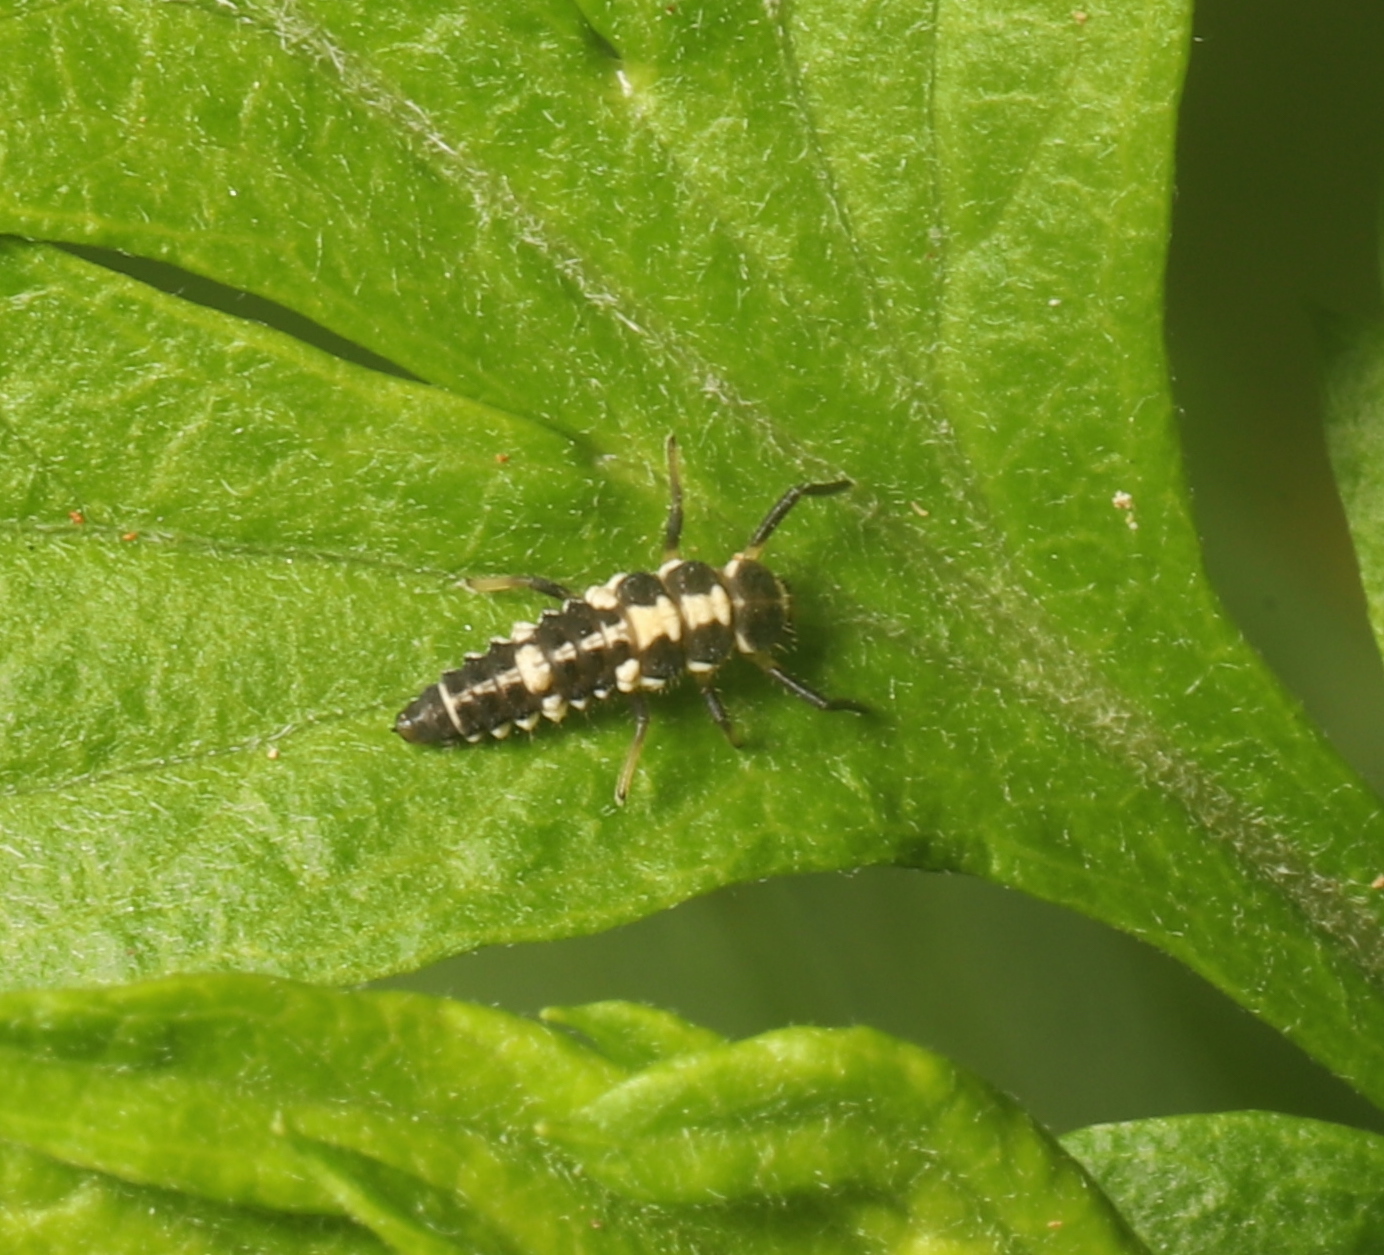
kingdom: Animalia
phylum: Arthropoda
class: Insecta
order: Coleoptera
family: Coccinellidae
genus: Propylaea
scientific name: Propylaea quatuordecimpunctata
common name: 14-spotted ladybird beetle
